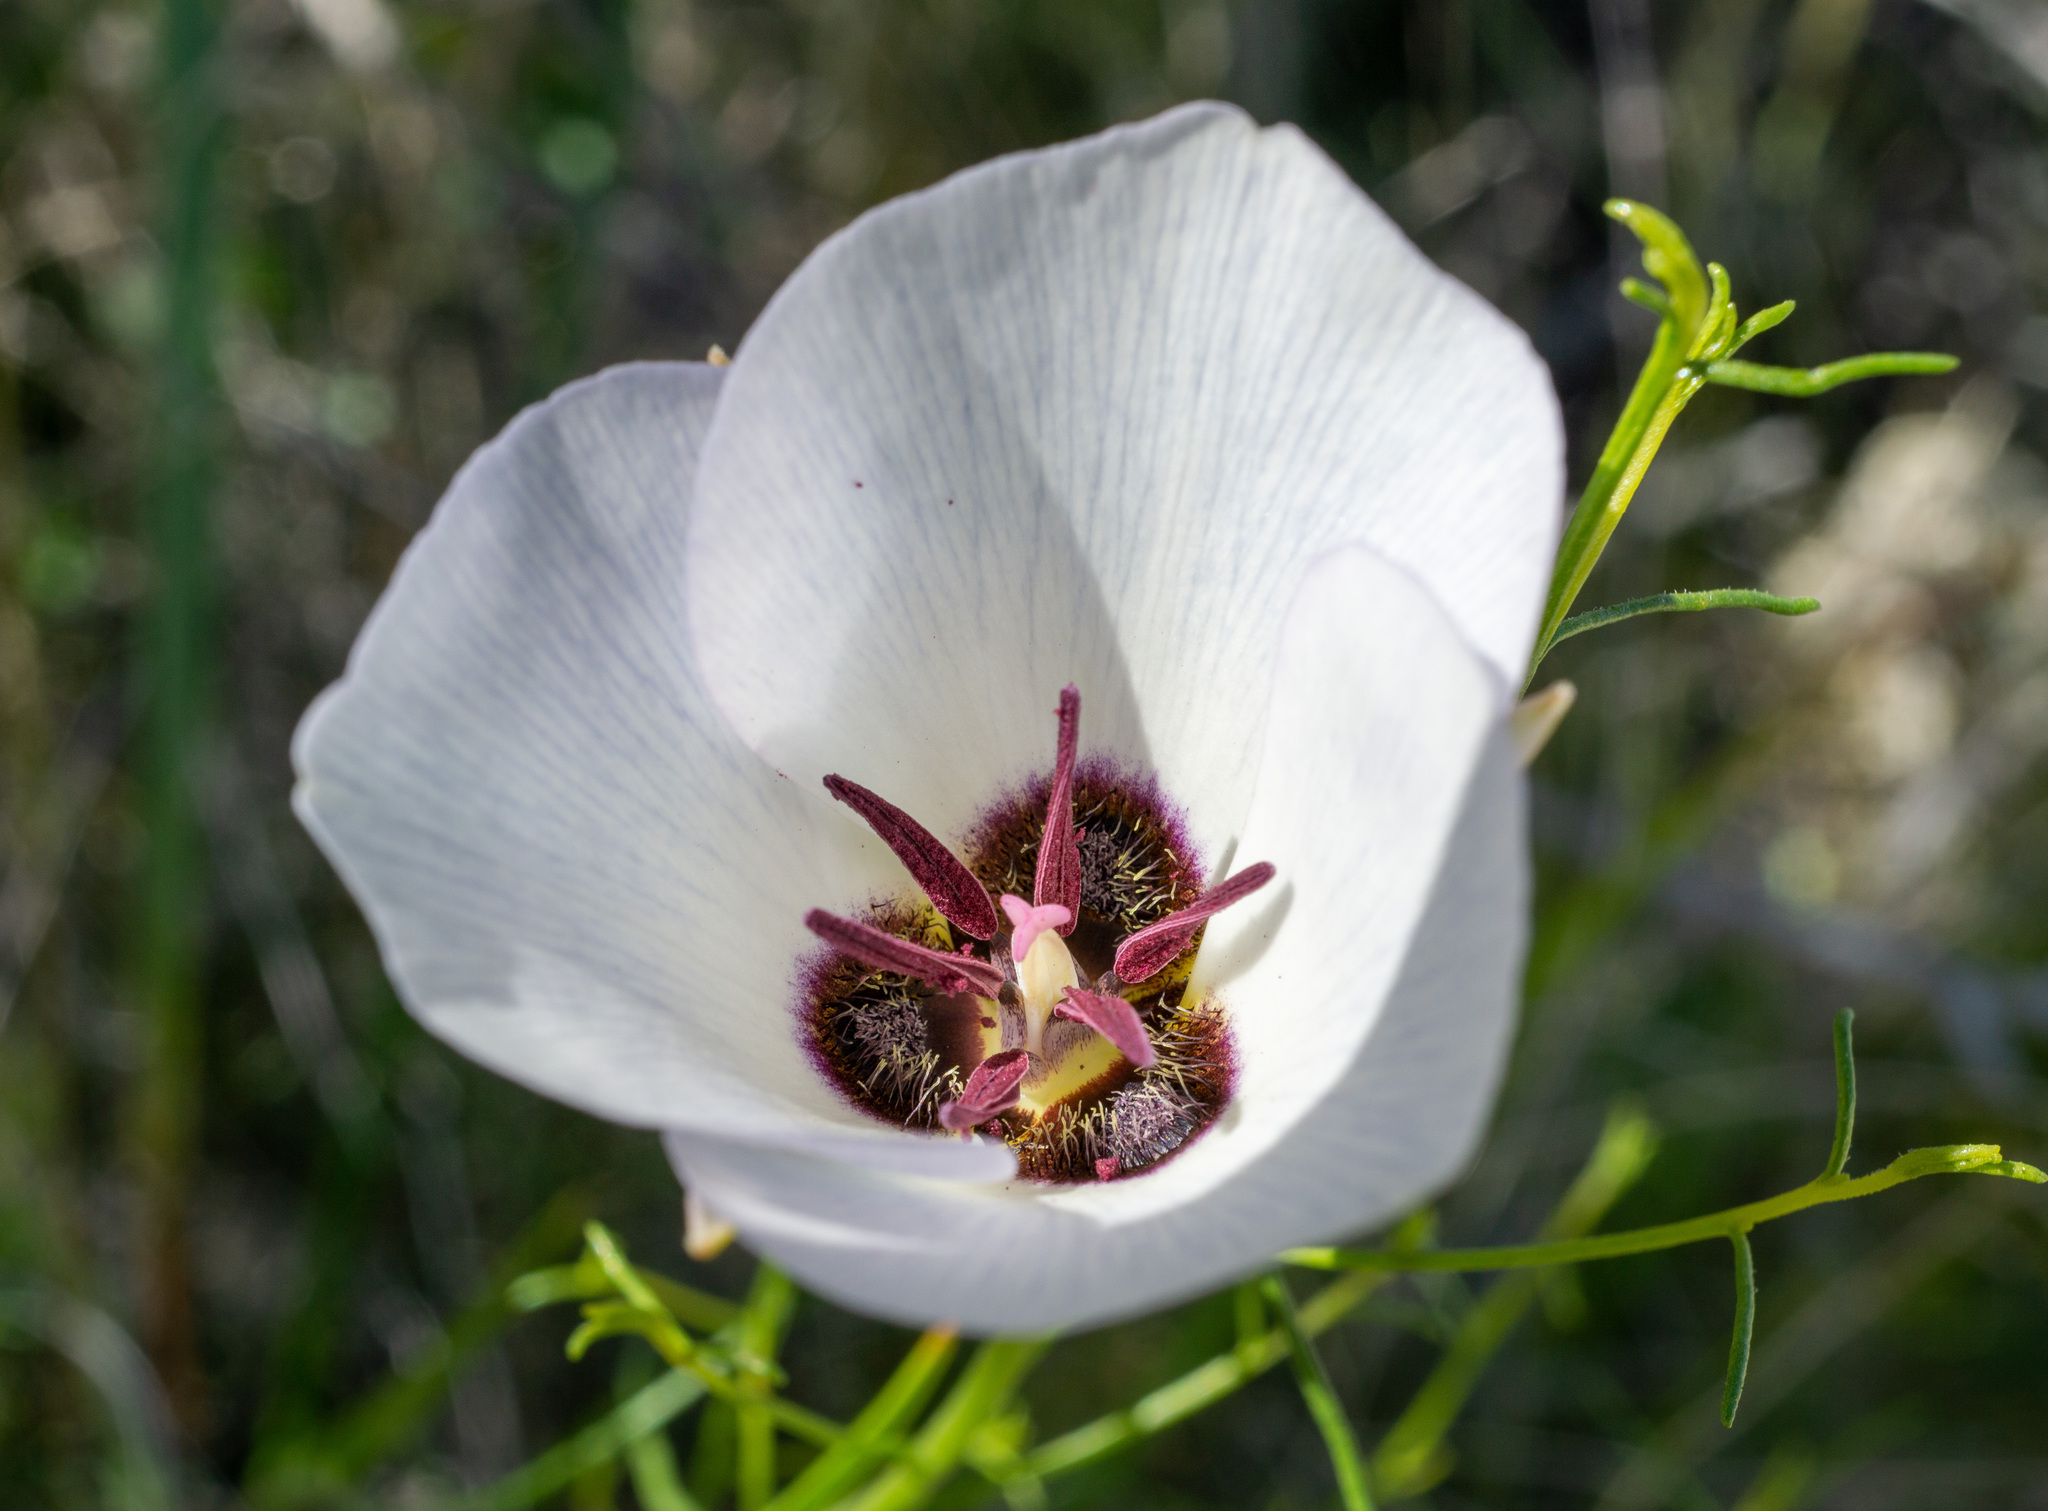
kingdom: Plantae
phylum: Tracheophyta
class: Liliopsida
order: Liliales
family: Liliaceae
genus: Calochortus
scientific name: Calochortus excavatus
